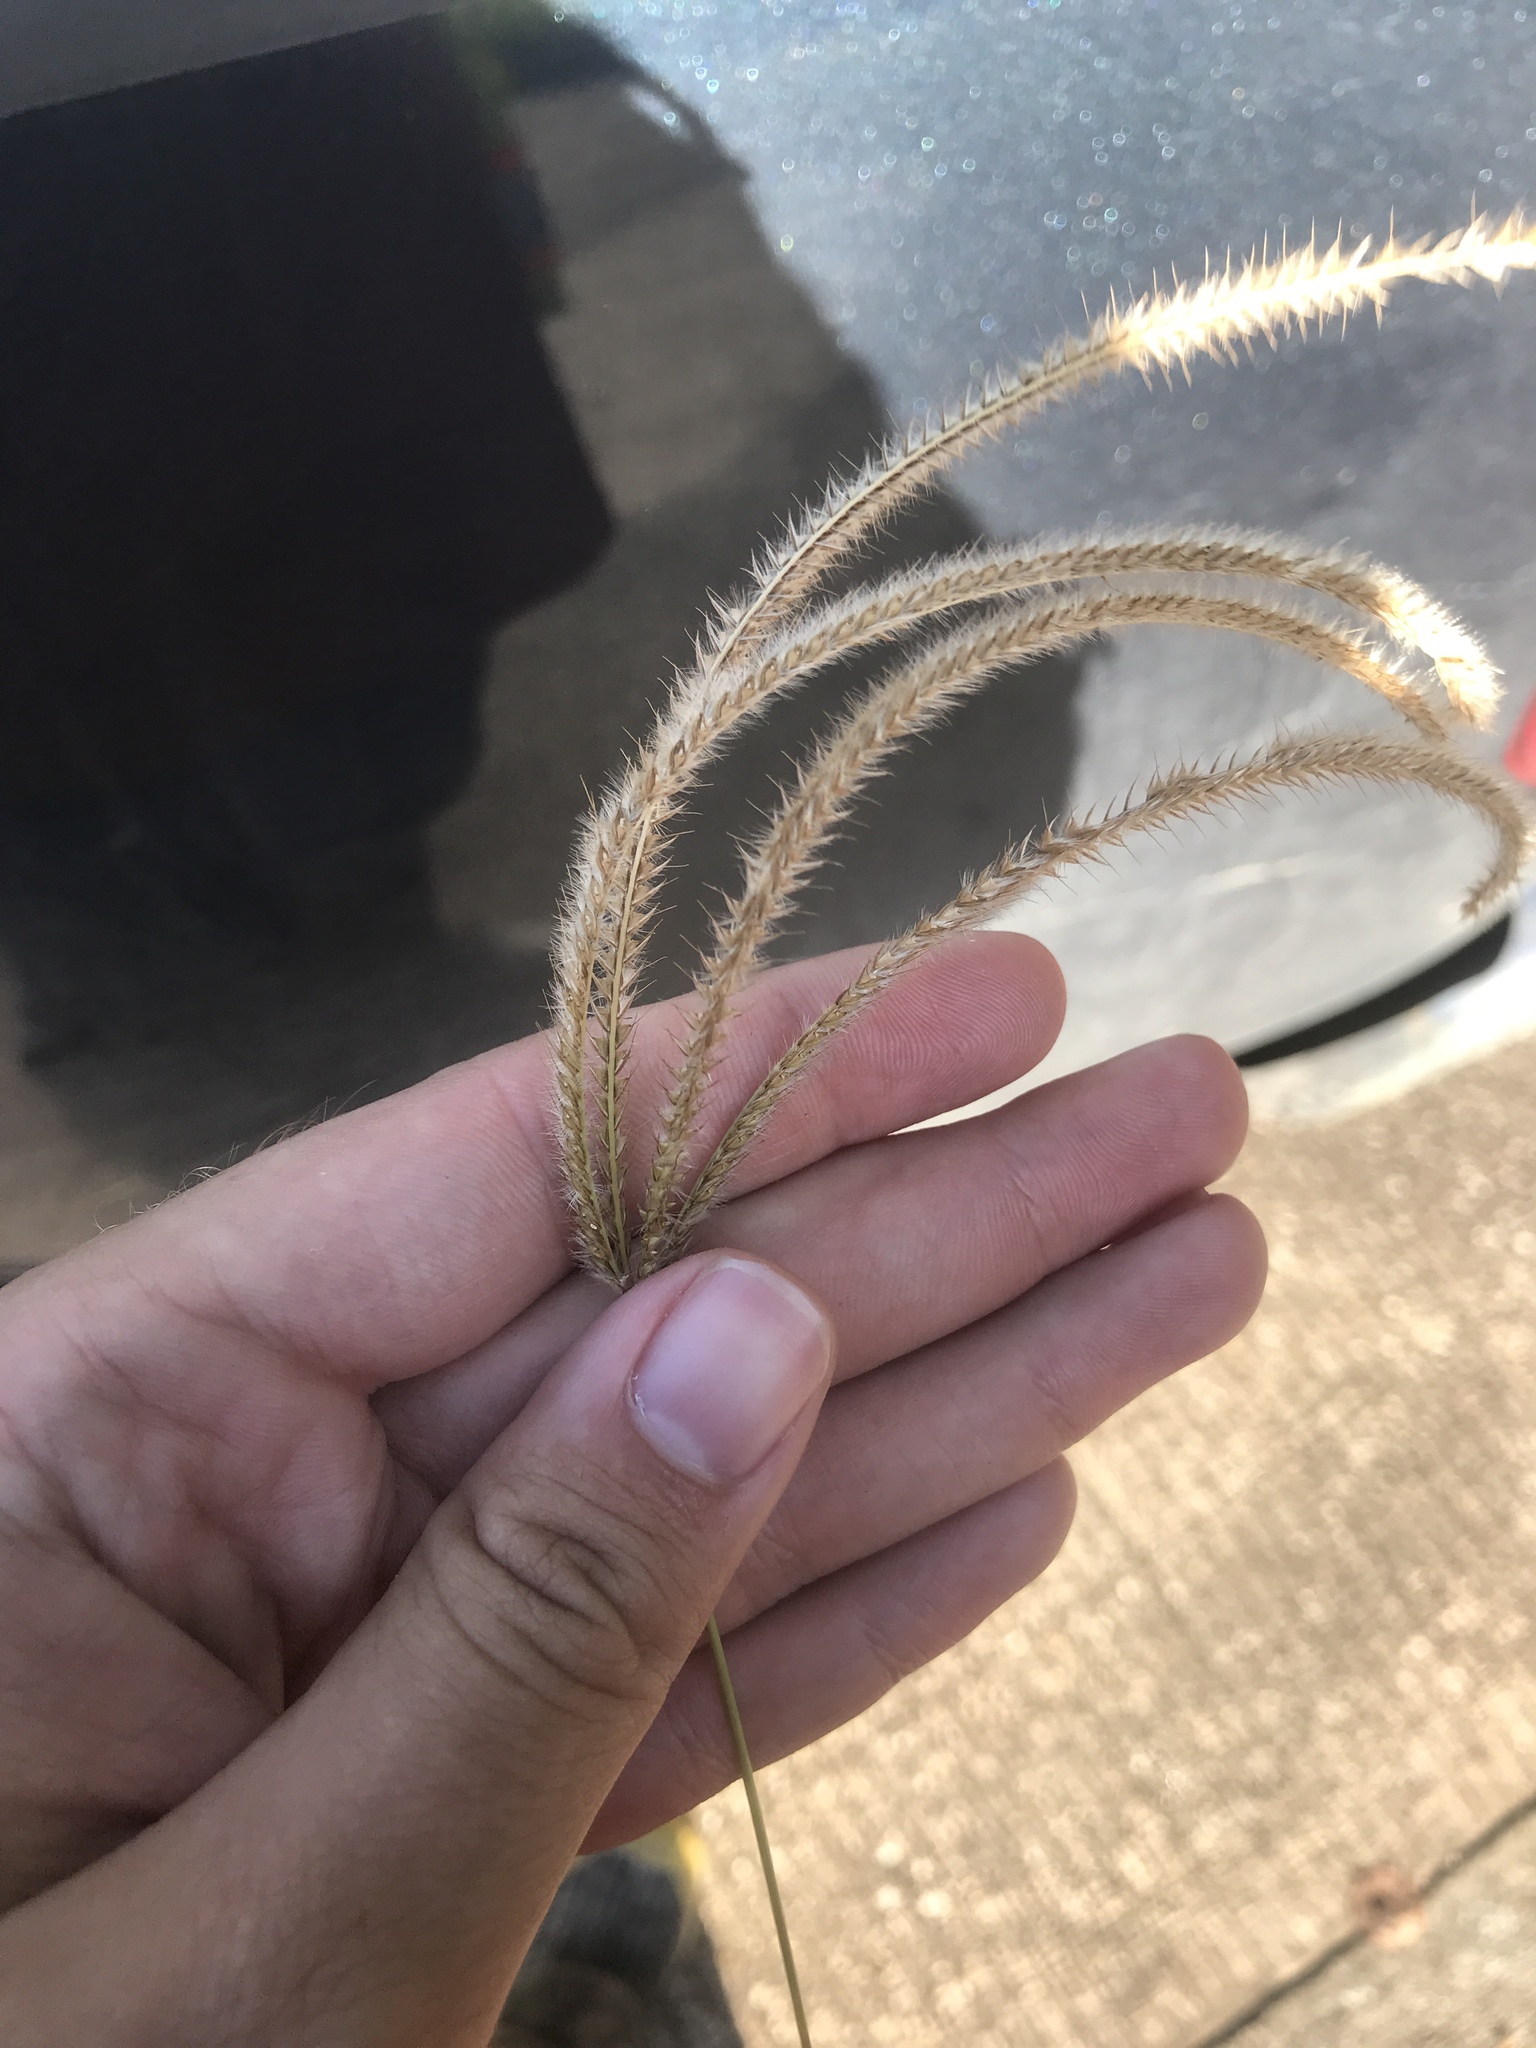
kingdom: Plantae
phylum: Tracheophyta
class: Liliopsida
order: Poales
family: Poaceae
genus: Stapfochloa
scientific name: Stapfochloa canterae
